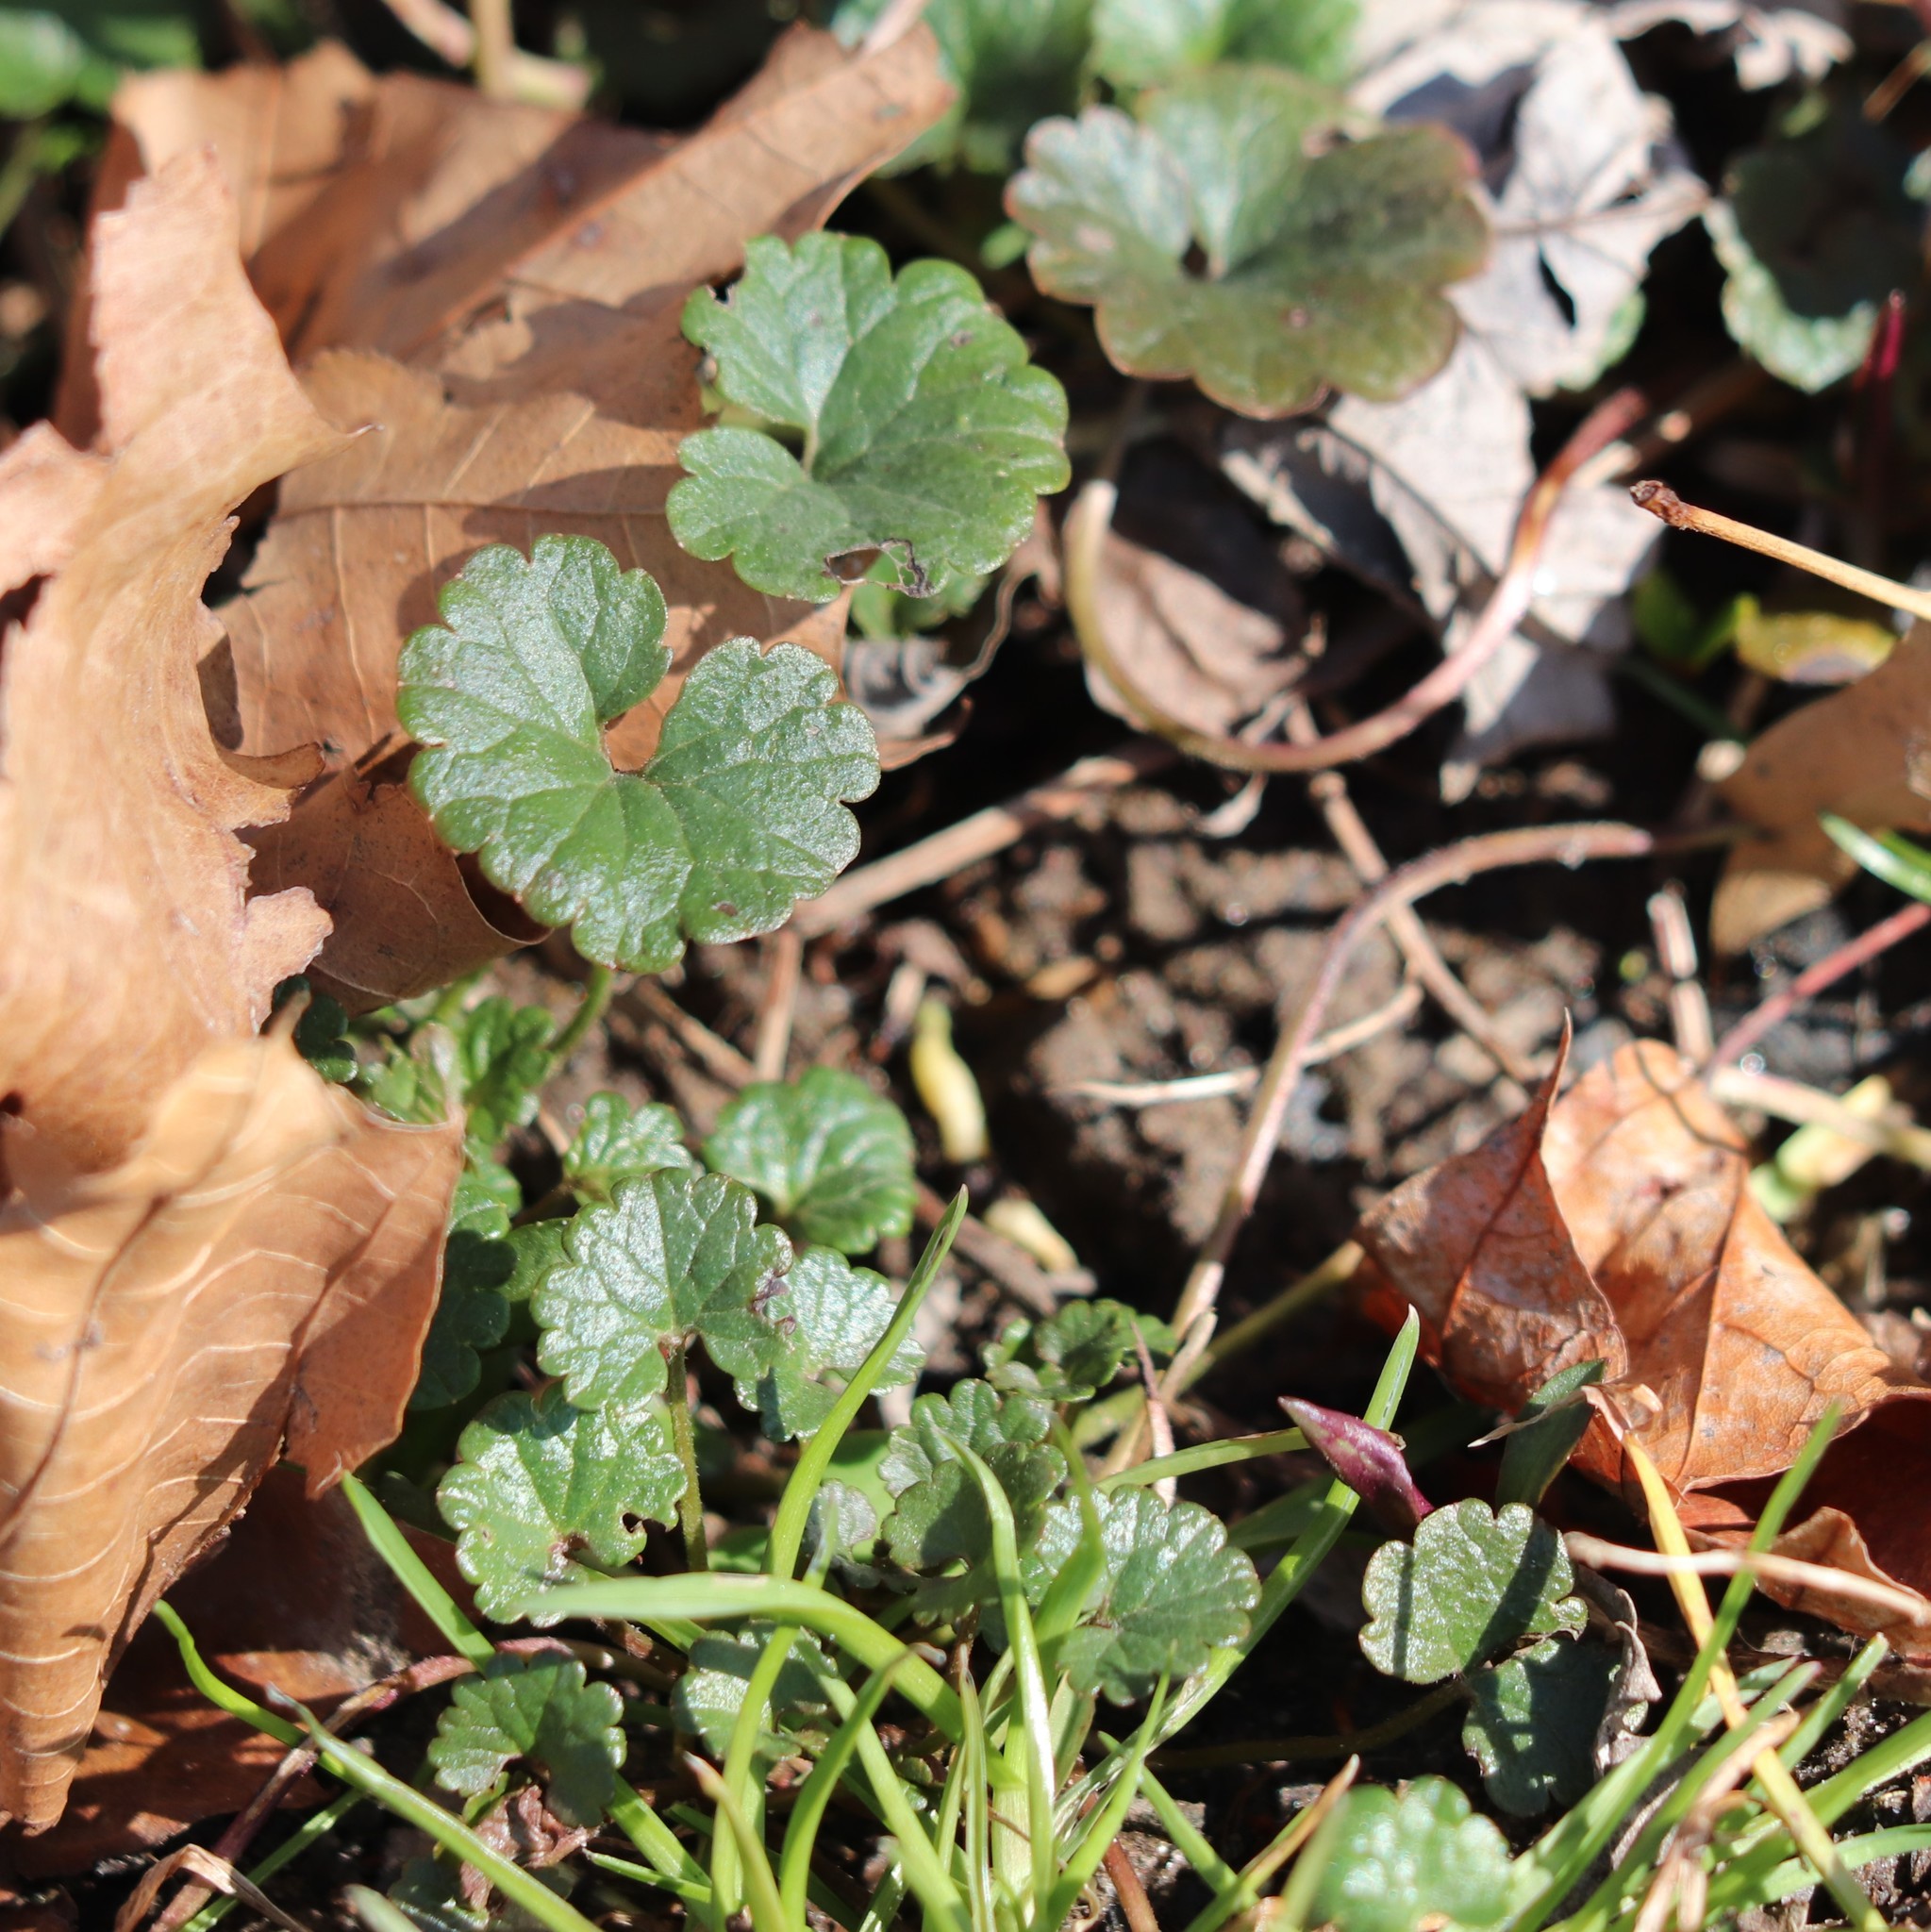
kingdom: Plantae
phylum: Tracheophyta
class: Magnoliopsida
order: Lamiales
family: Lamiaceae
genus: Glechoma
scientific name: Glechoma hederacea
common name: Ground ivy
